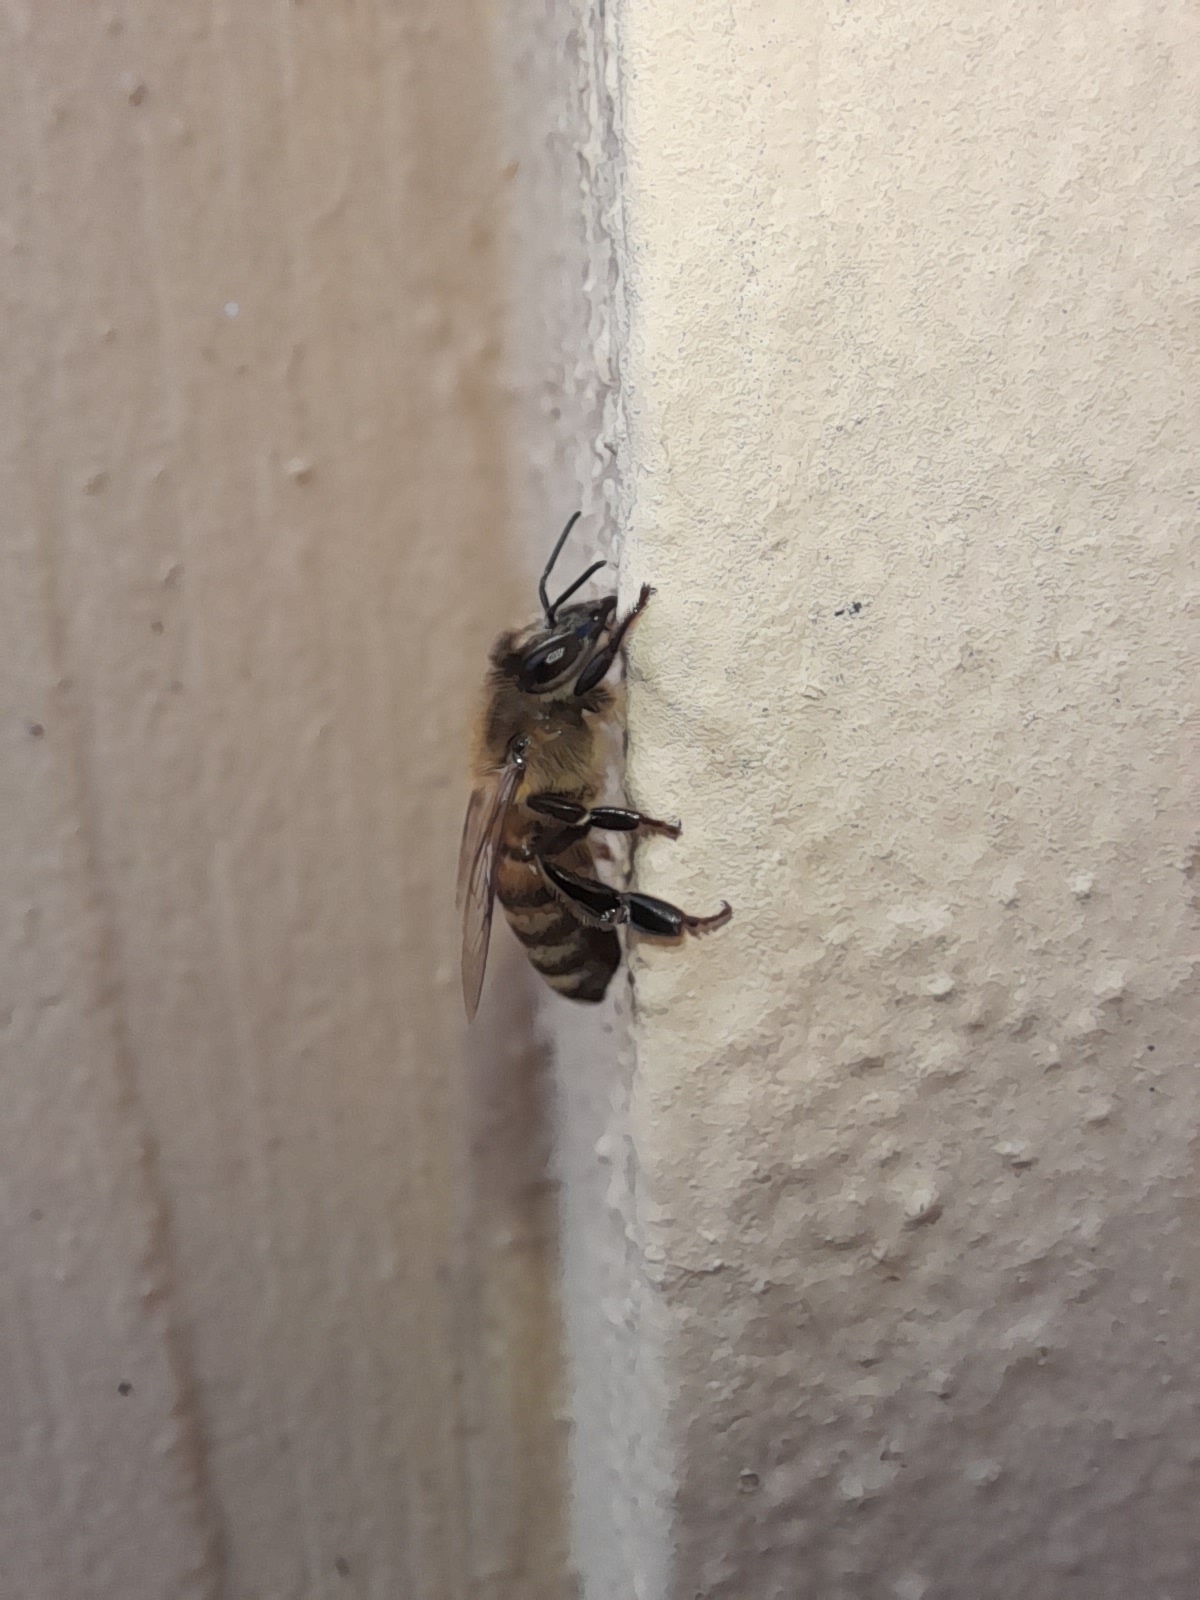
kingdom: Animalia
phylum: Arthropoda
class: Insecta
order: Hymenoptera
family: Apidae
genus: Apis
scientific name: Apis mellifera
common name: Honey bee
